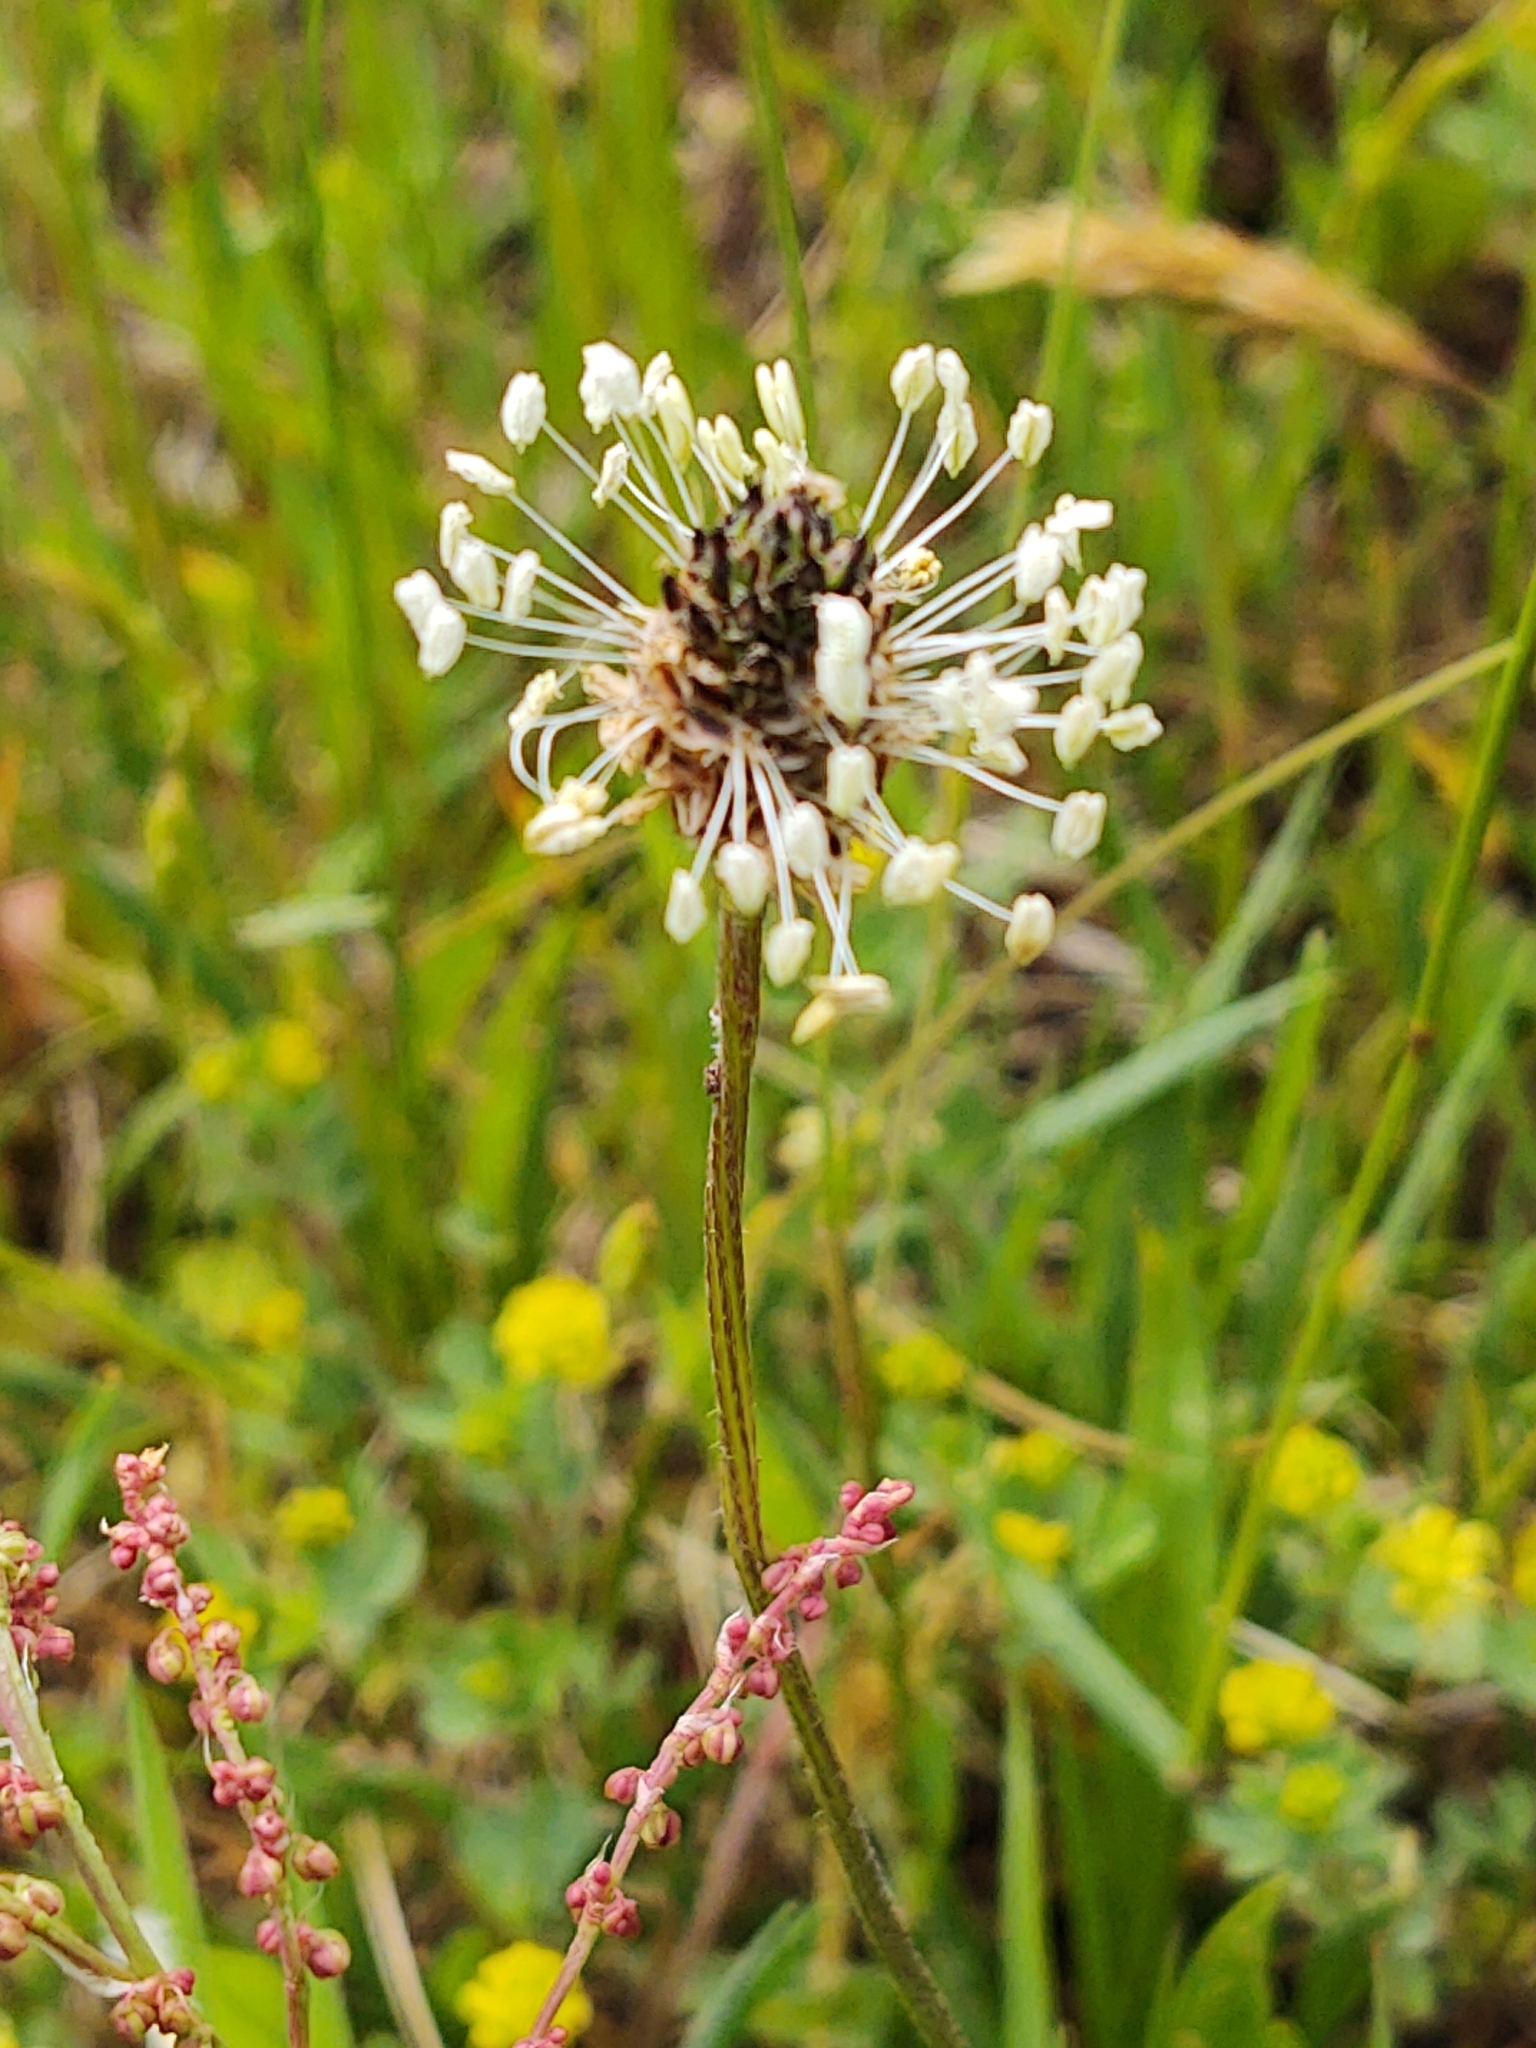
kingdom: Plantae
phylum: Tracheophyta
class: Magnoliopsida
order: Lamiales
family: Plantaginaceae
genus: Plantago
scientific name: Plantago lanceolata
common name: Ribwort plantain
